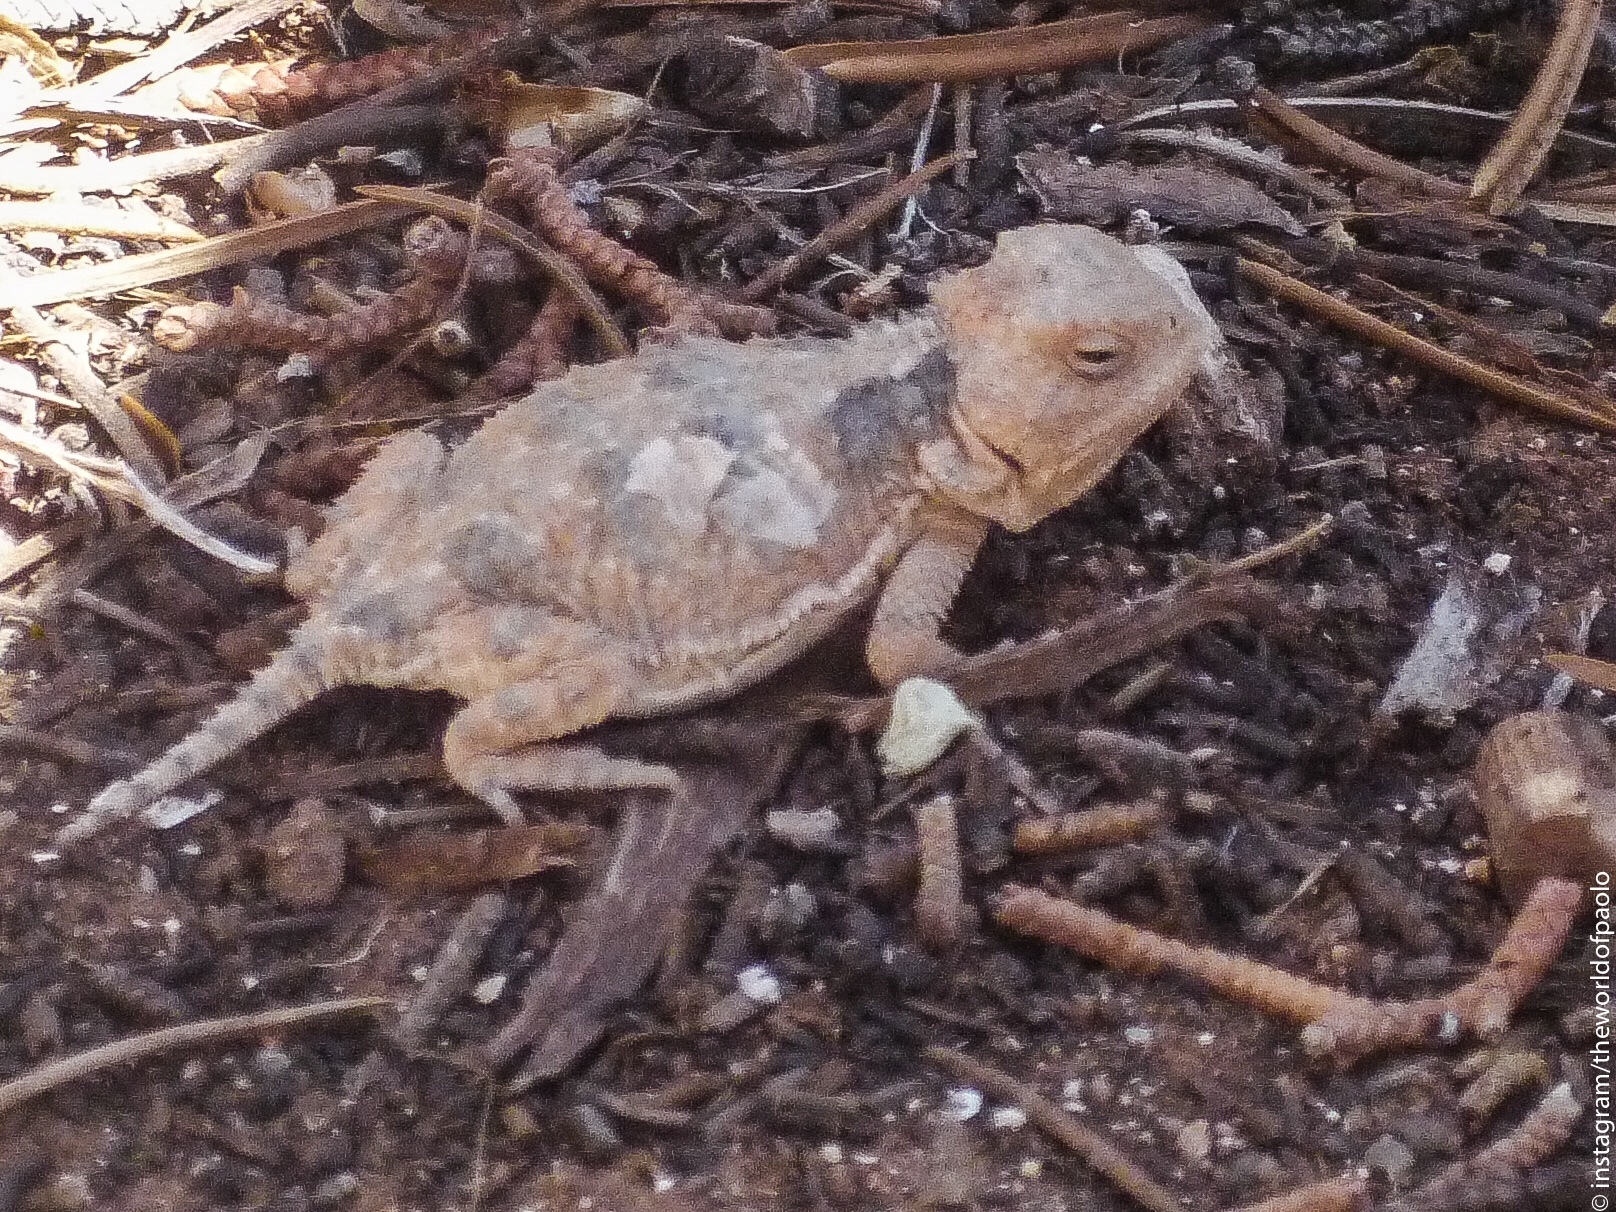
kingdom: Animalia
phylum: Chordata
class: Squamata
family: Phrynosomatidae
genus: Phrynosoma
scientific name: Phrynosoma hernandesi
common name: Greater short-horned lizard
